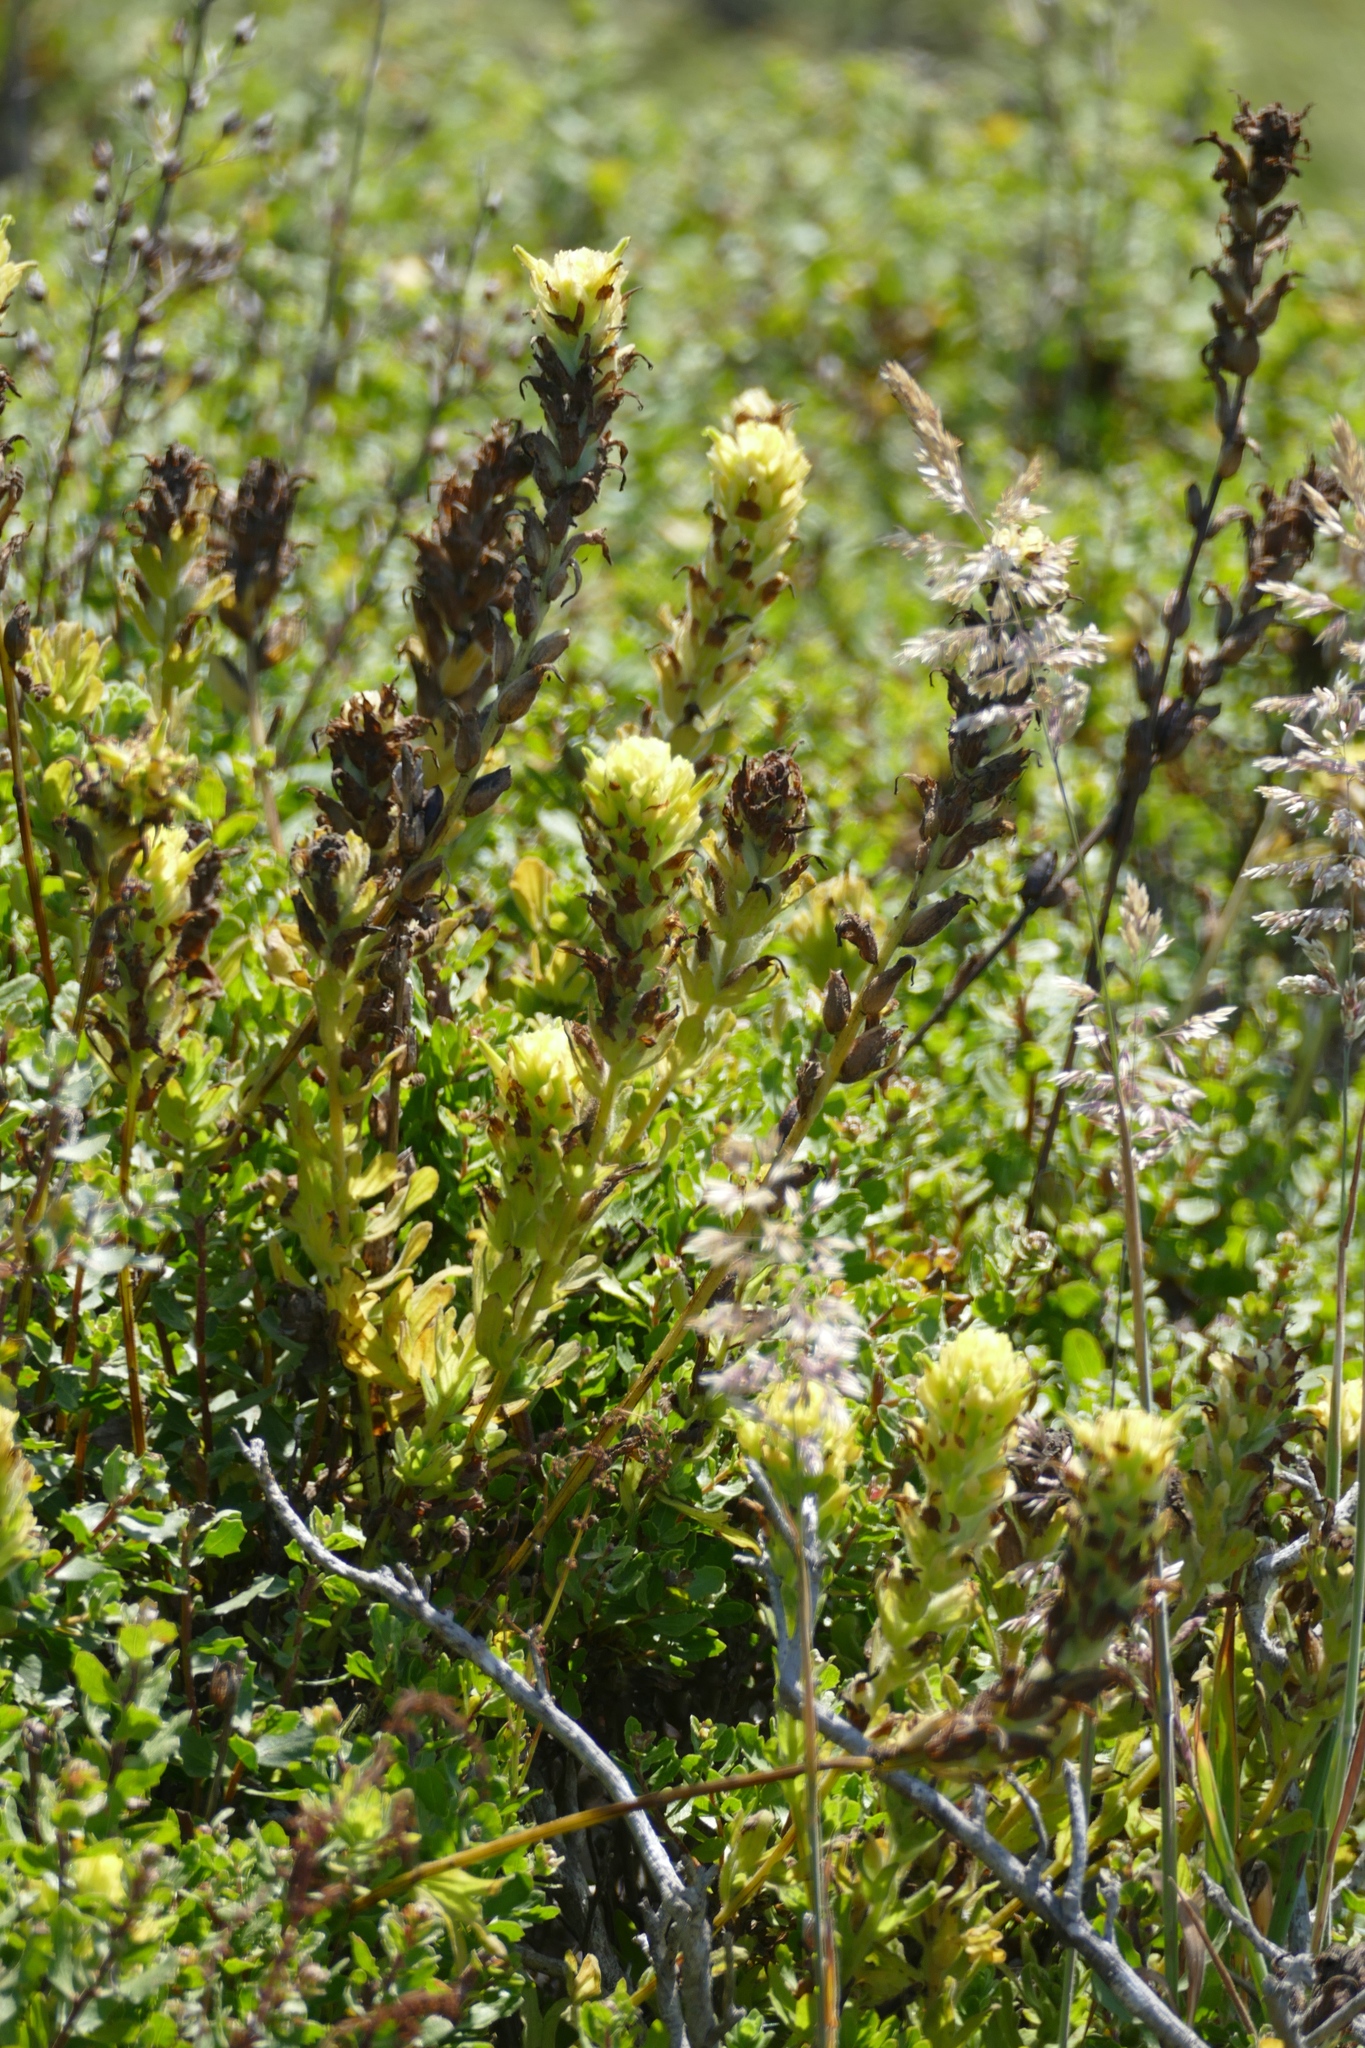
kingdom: Plantae
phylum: Tracheophyta
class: Magnoliopsida
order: Lamiales
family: Orobanchaceae
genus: Castilleja
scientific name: Castilleja wightii
